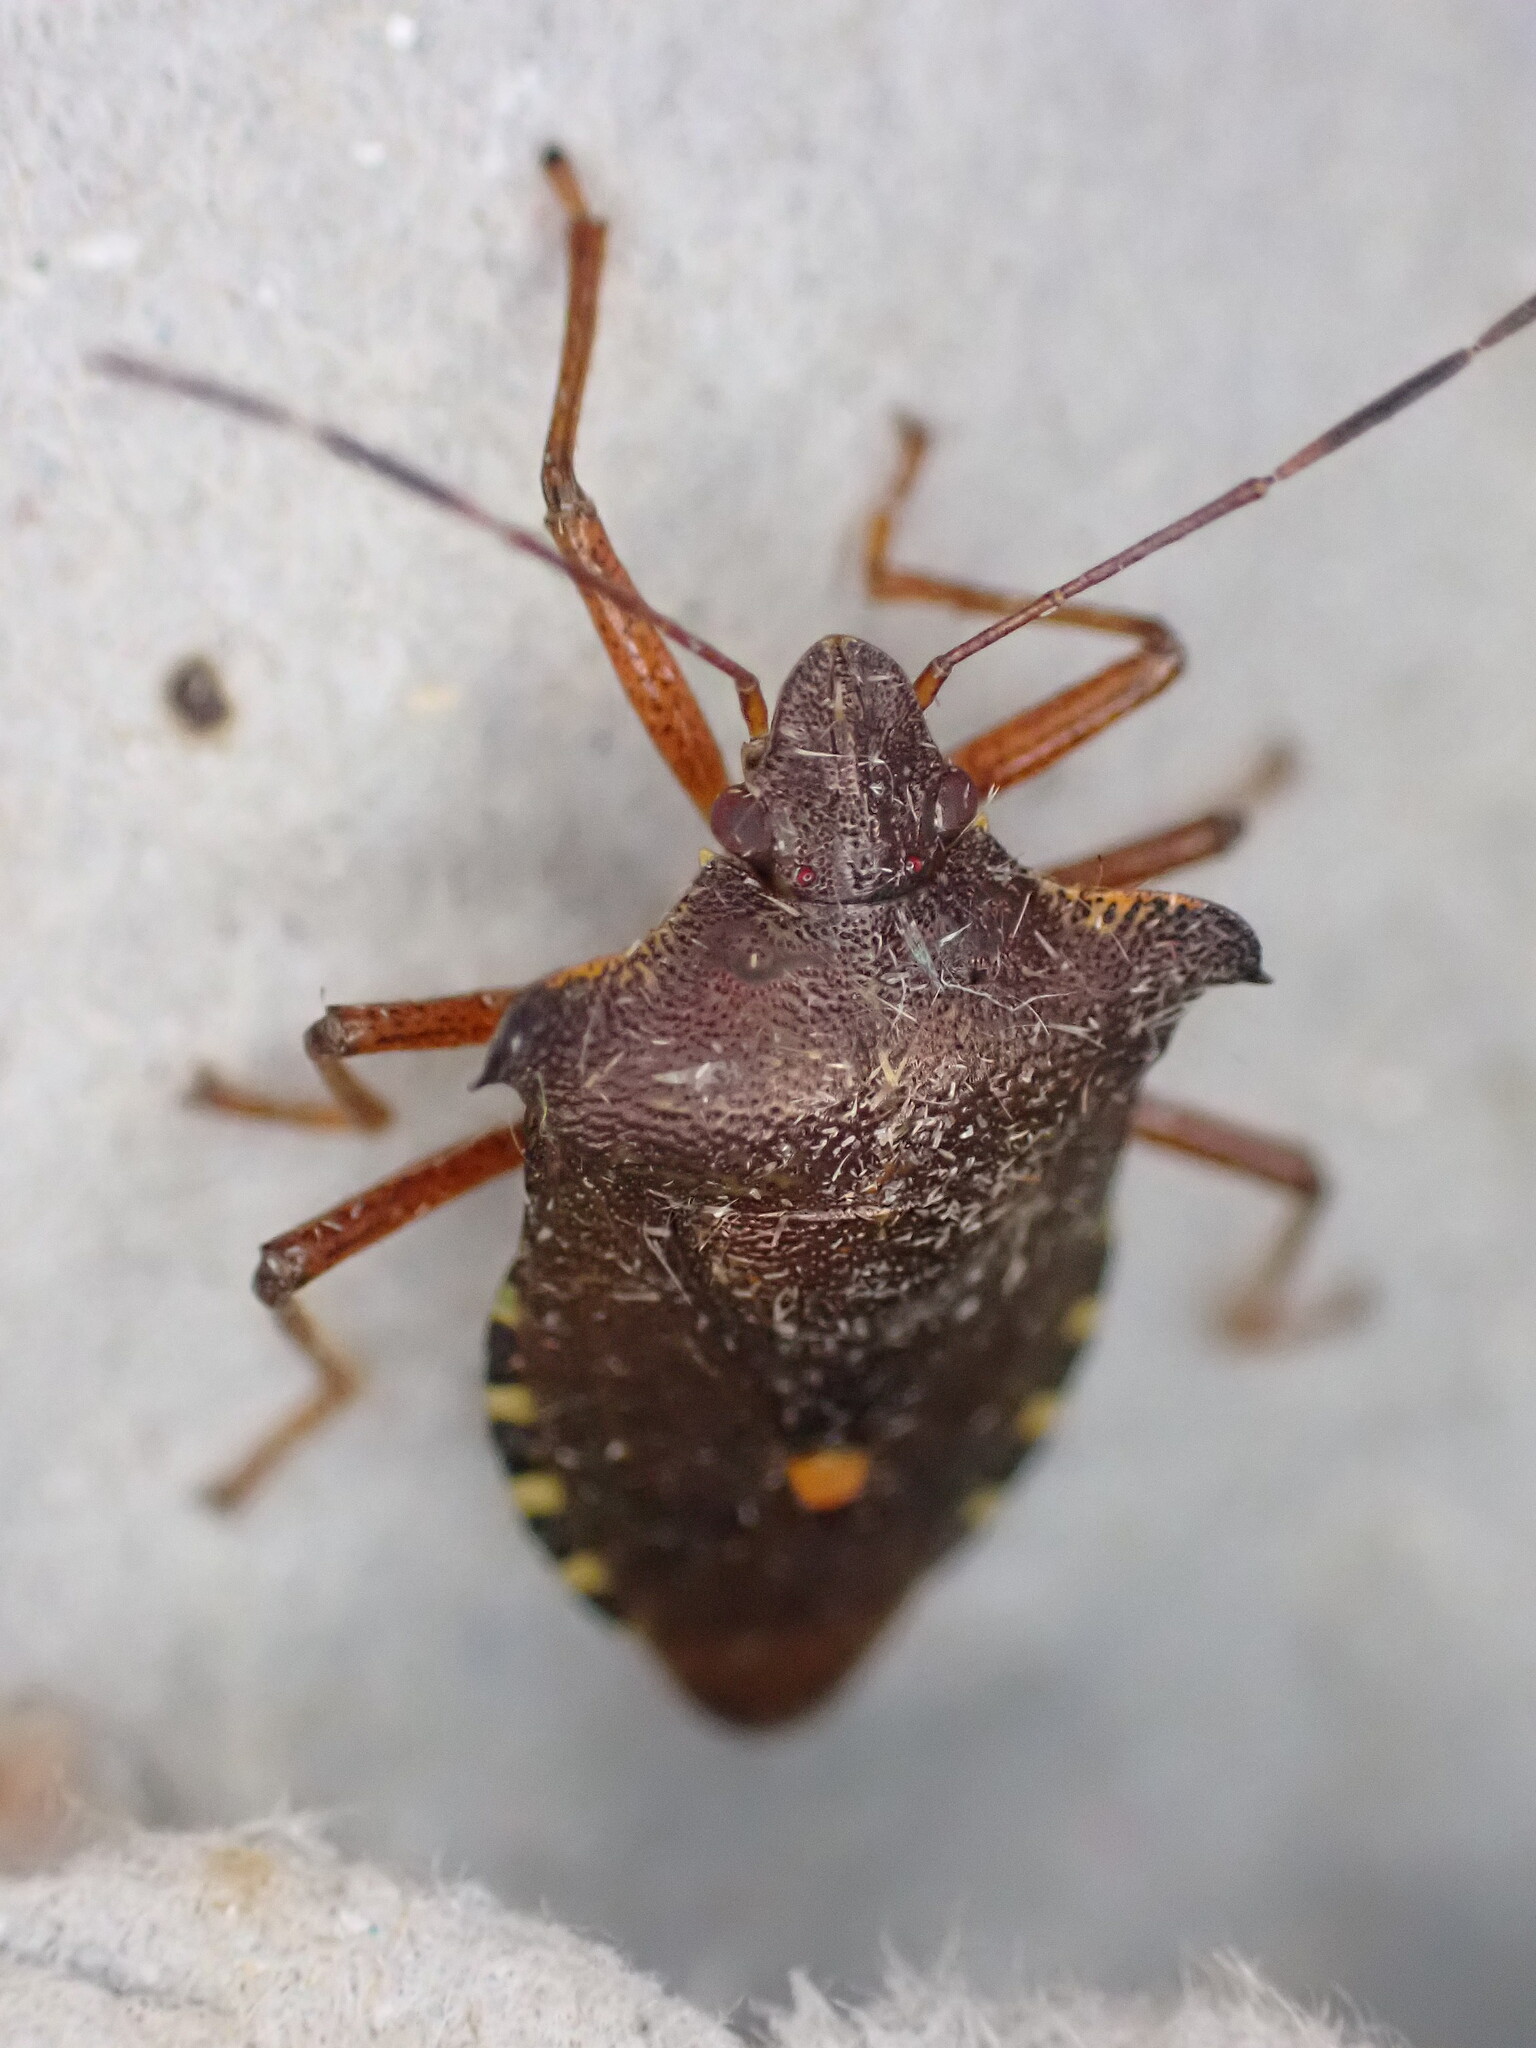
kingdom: Animalia
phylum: Arthropoda
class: Insecta
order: Hemiptera
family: Pentatomidae
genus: Pentatoma
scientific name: Pentatoma rufipes
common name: Forest bug
